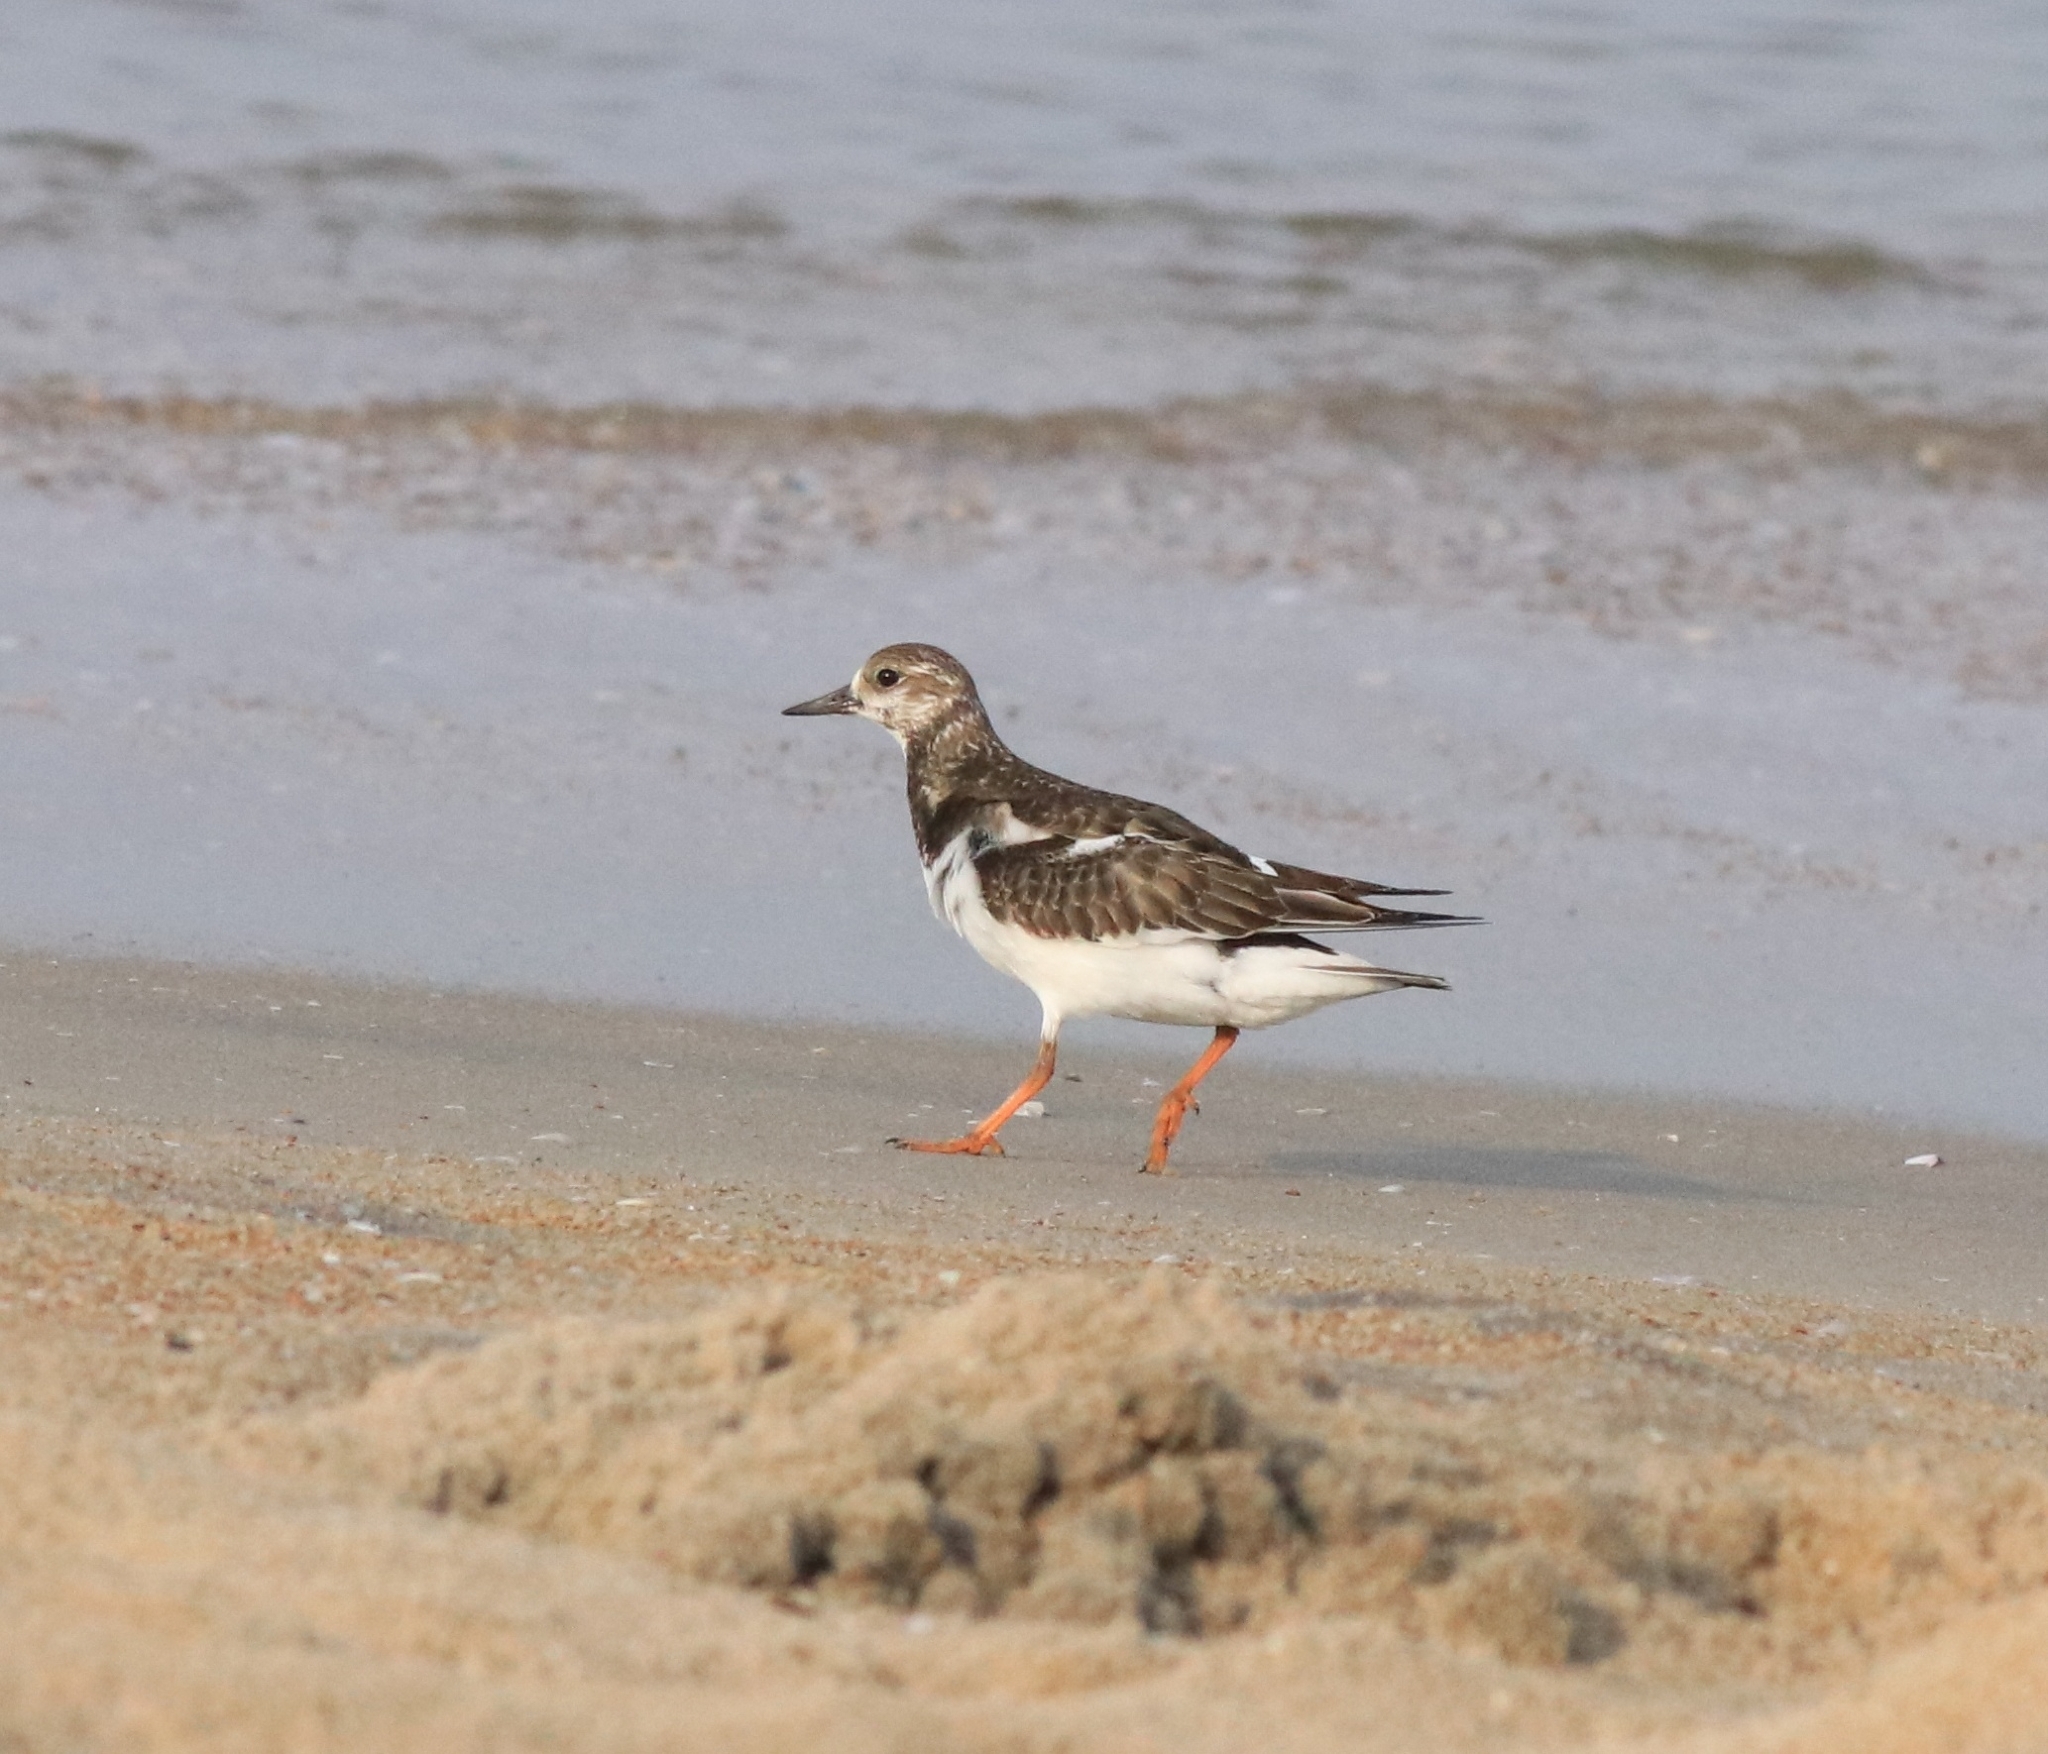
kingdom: Animalia
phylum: Chordata
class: Aves
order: Charadriiformes
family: Scolopacidae
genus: Arenaria
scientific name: Arenaria interpres
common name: Ruddy turnstone
